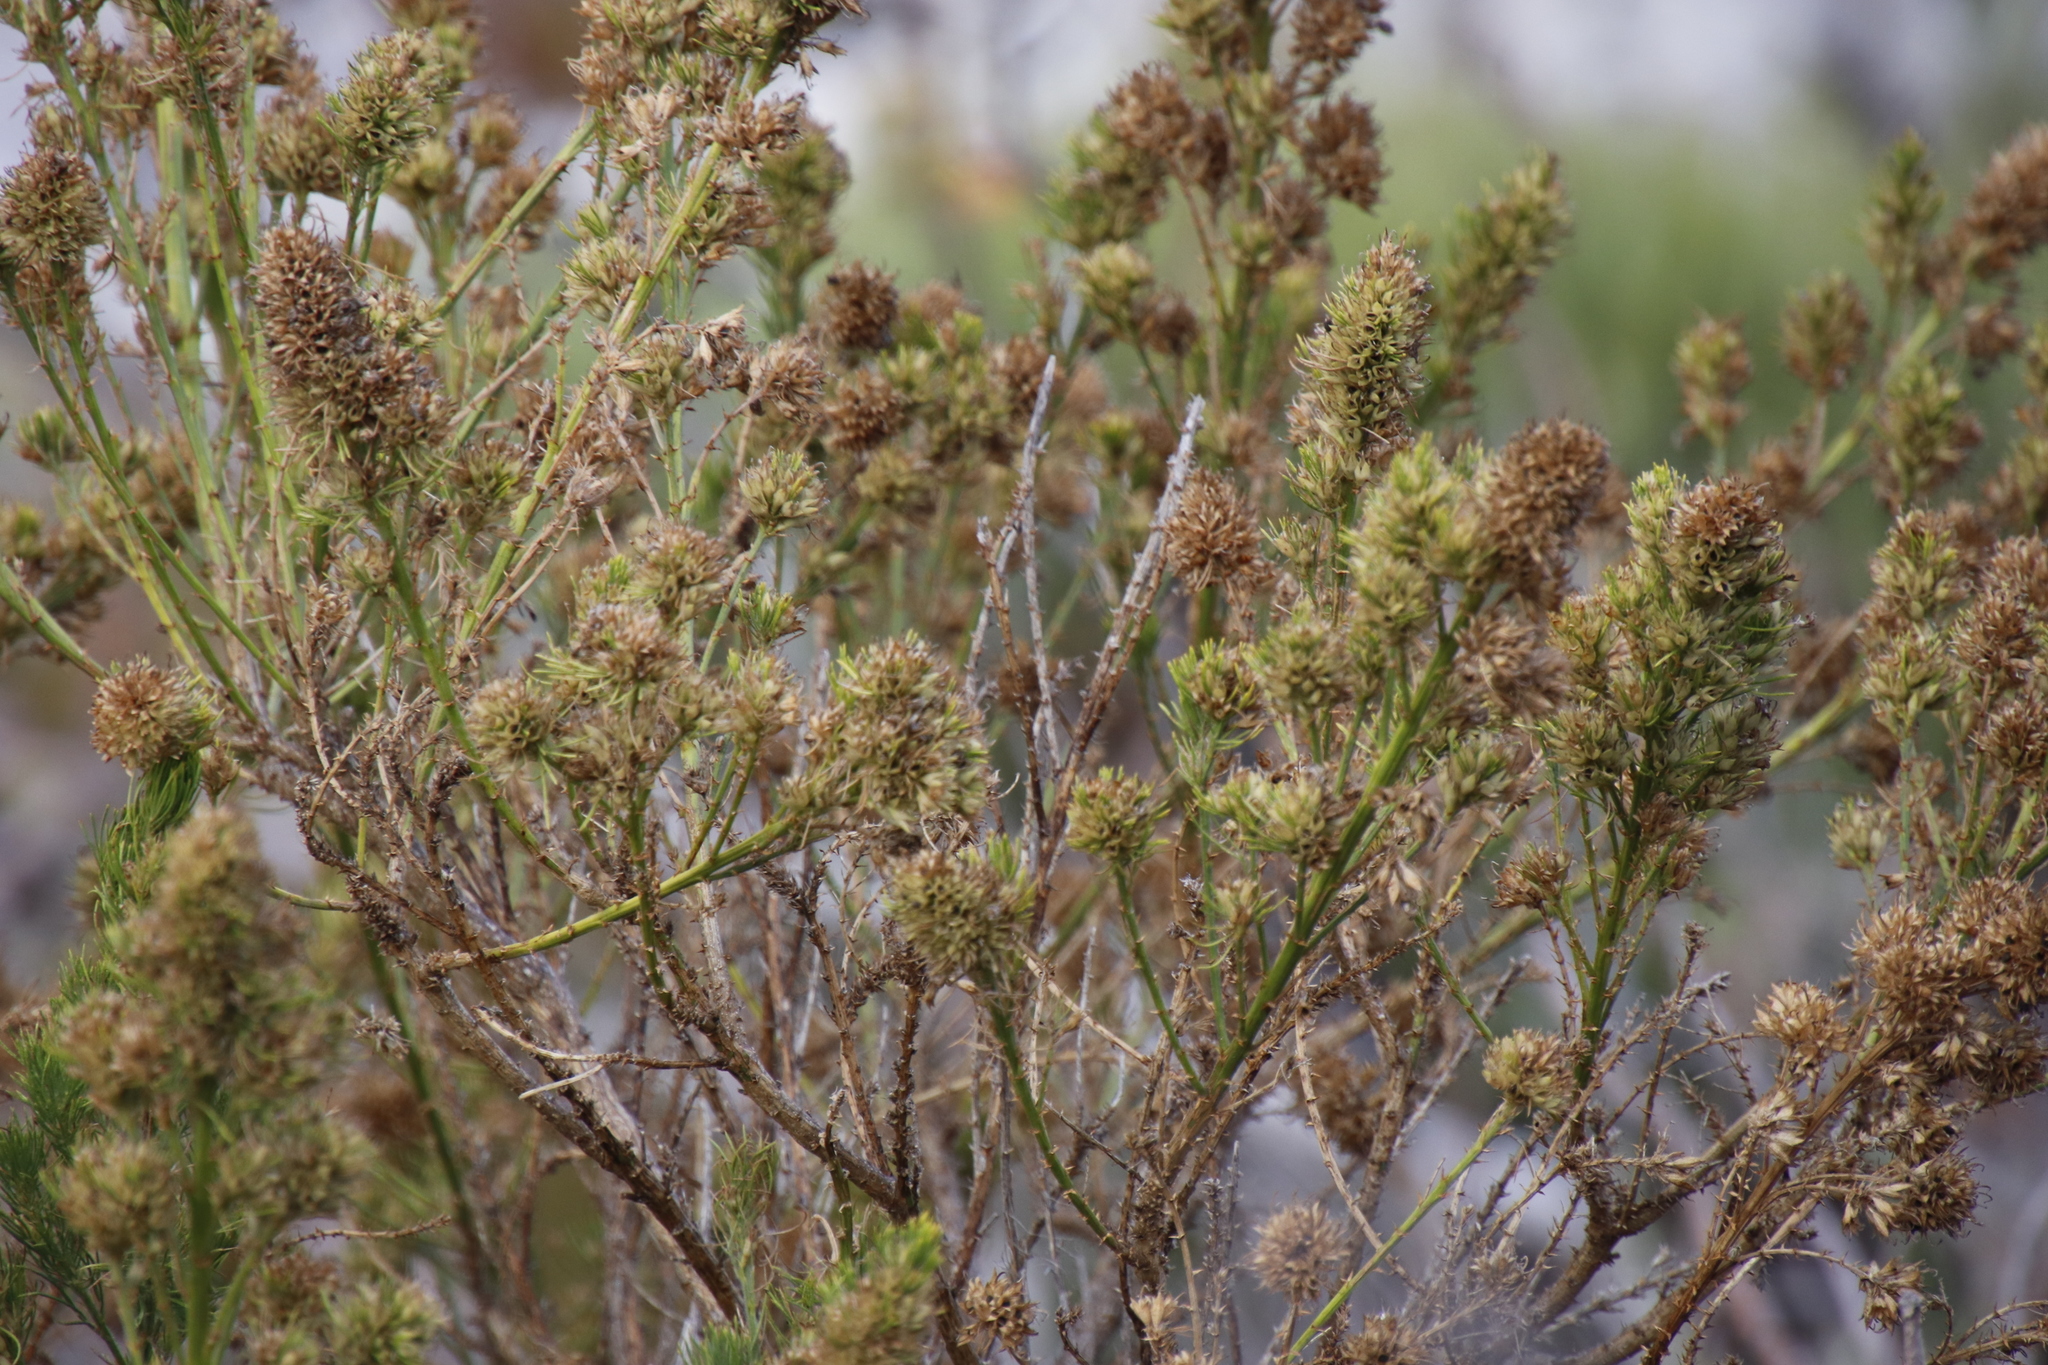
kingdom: Plantae
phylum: Tracheophyta
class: Magnoliopsida
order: Fabales
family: Fabaceae
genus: Psoralea
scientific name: Psoralea pinnata
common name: African scurfpea
